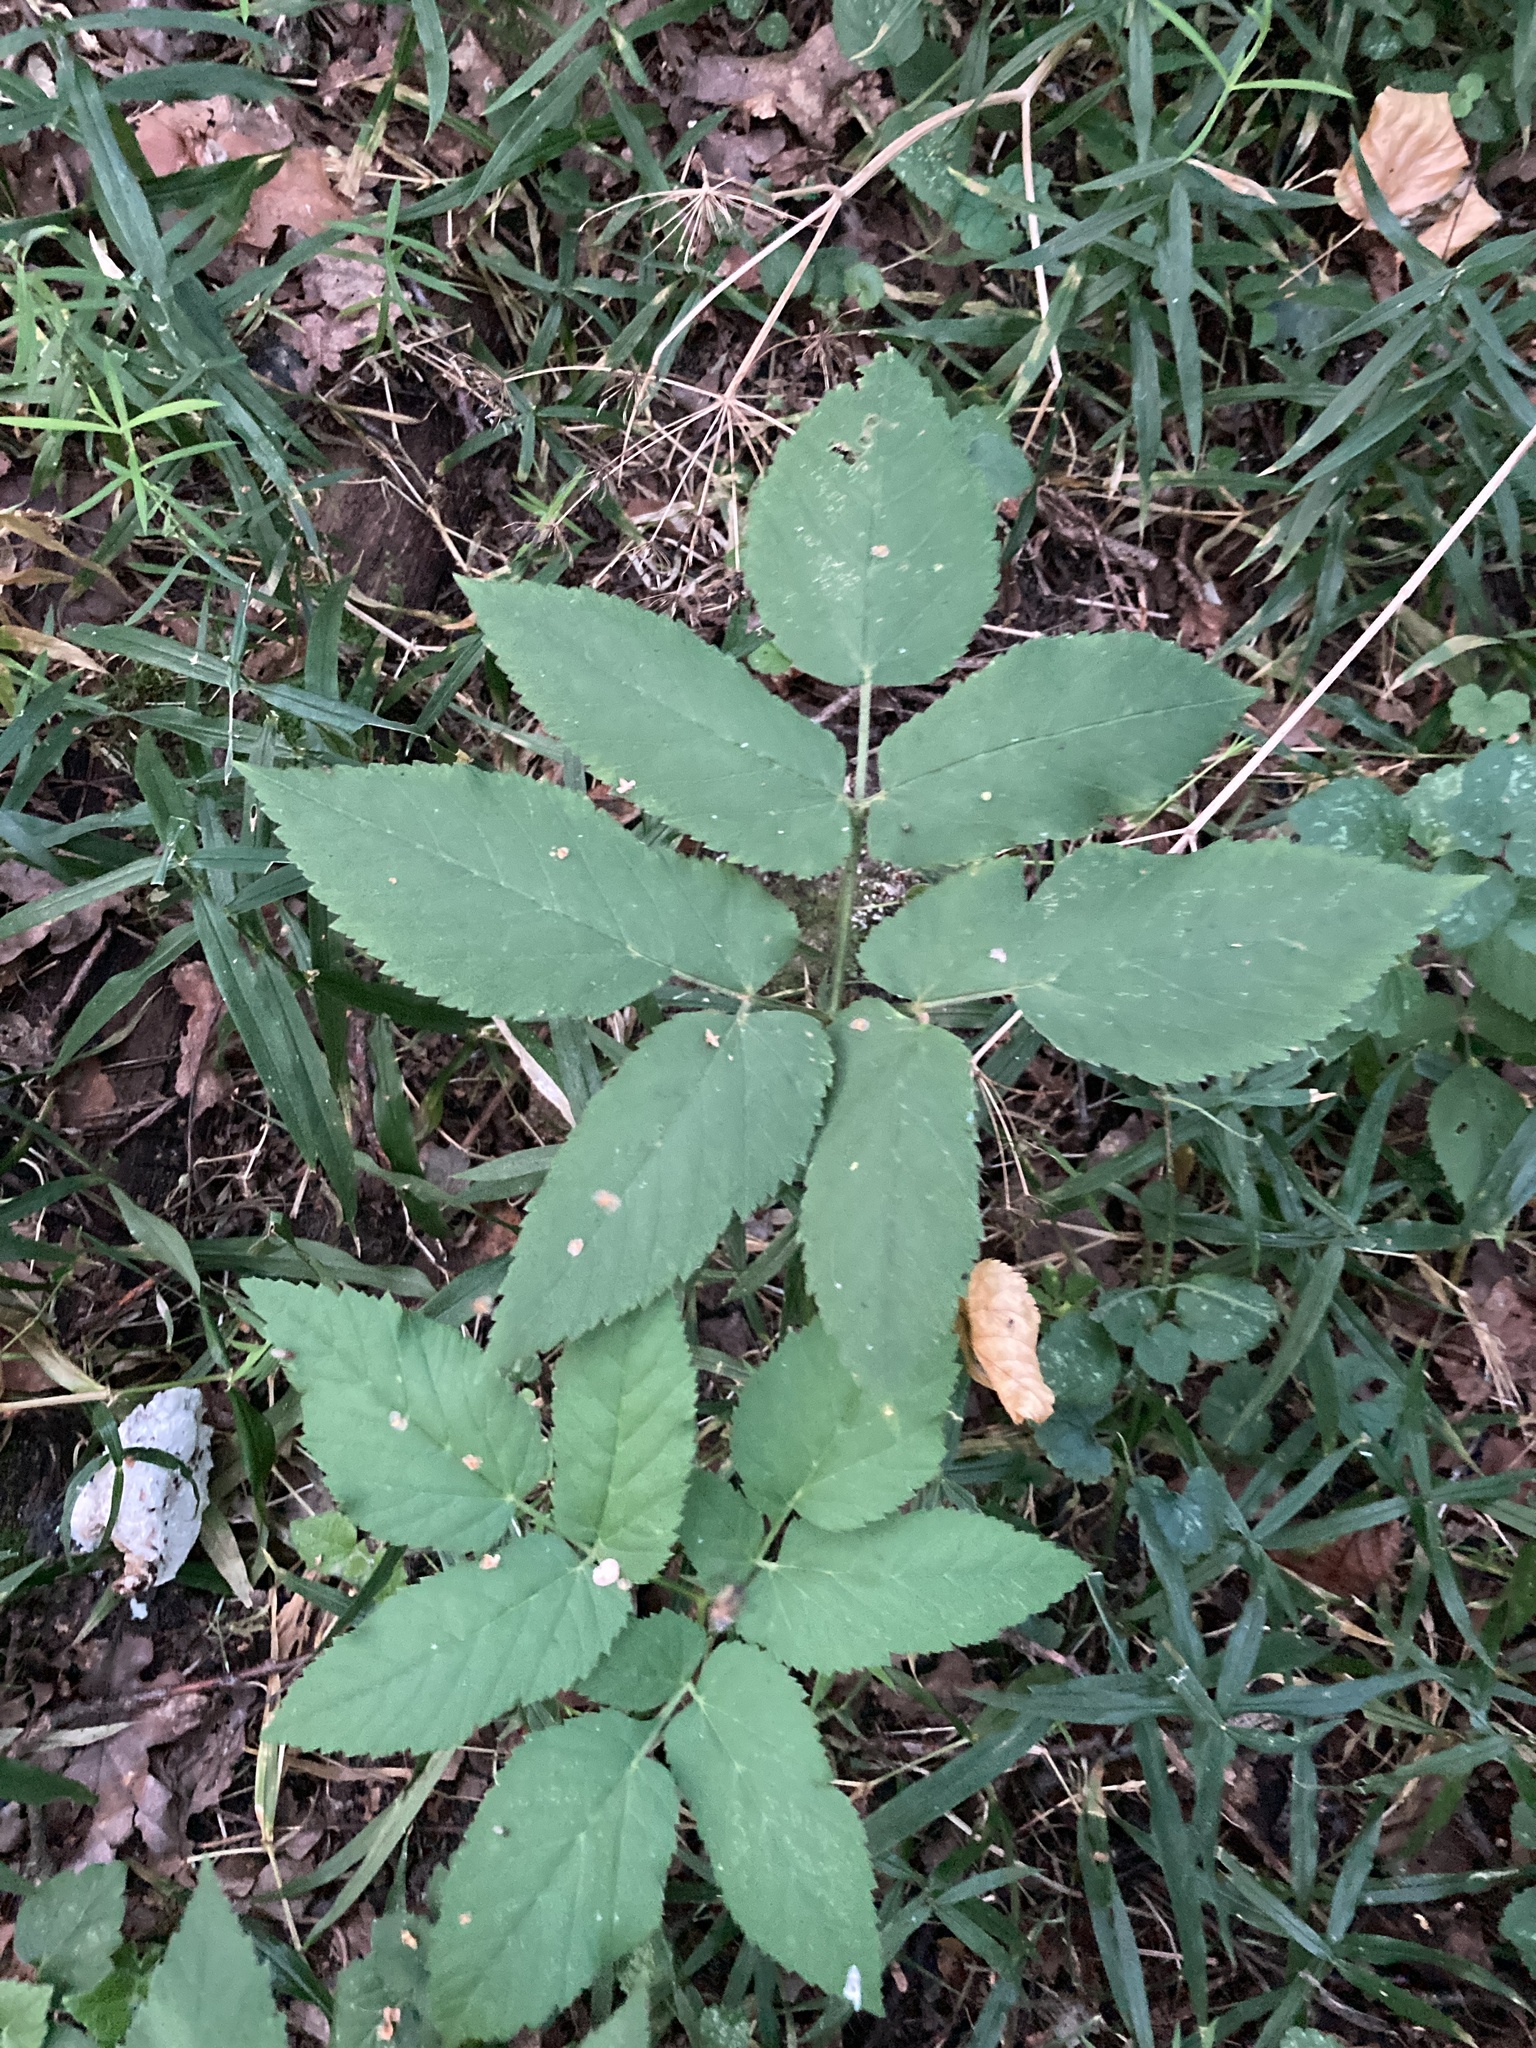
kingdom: Plantae
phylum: Tracheophyta
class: Magnoliopsida
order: Apiales
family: Apiaceae
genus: Aegopodium
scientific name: Aegopodium podagraria
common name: Ground-elder
